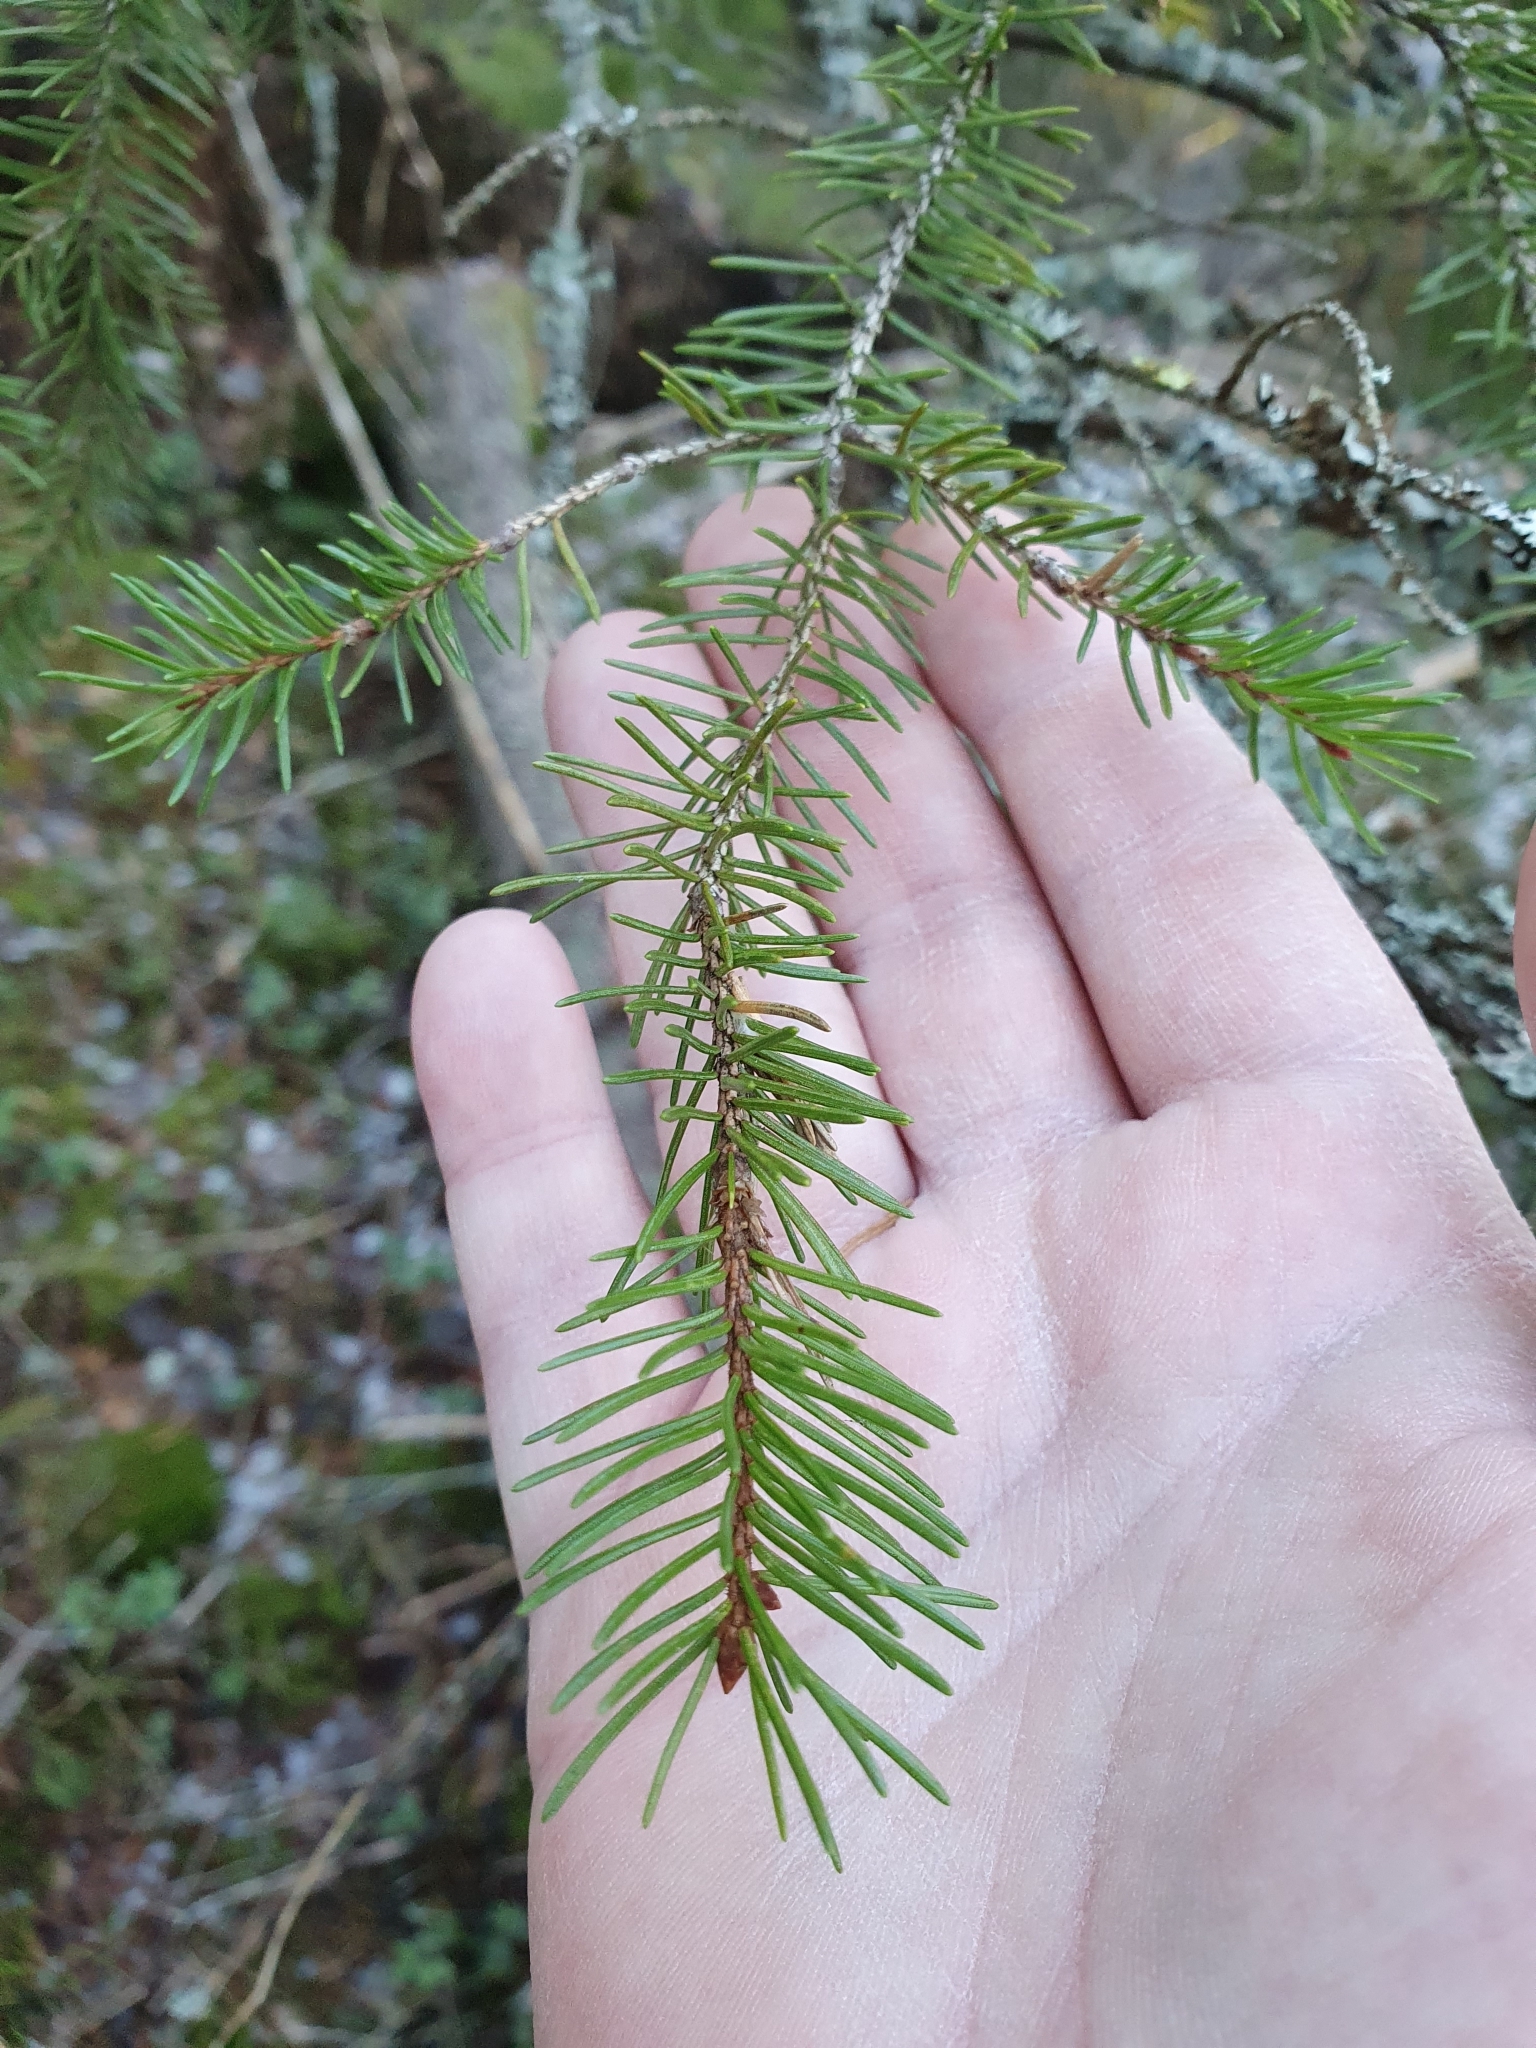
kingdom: Plantae
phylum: Tracheophyta
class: Pinopsida
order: Pinales
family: Pinaceae
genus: Picea
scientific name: Picea abies
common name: Norway spruce
